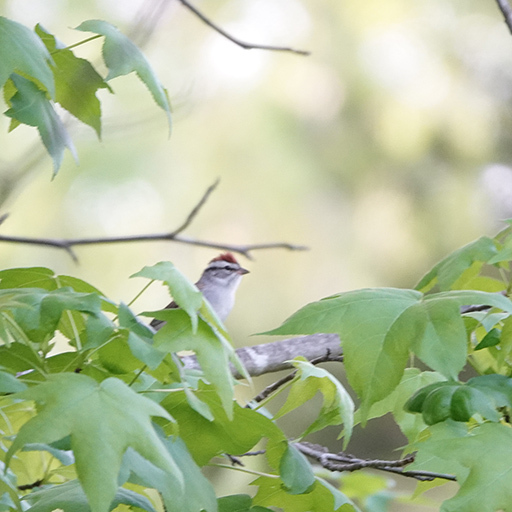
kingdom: Animalia
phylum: Chordata
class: Aves
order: Passeriformes
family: Passerellidae
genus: Spizella
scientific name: Spizella passerina
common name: Chipping sparrow
